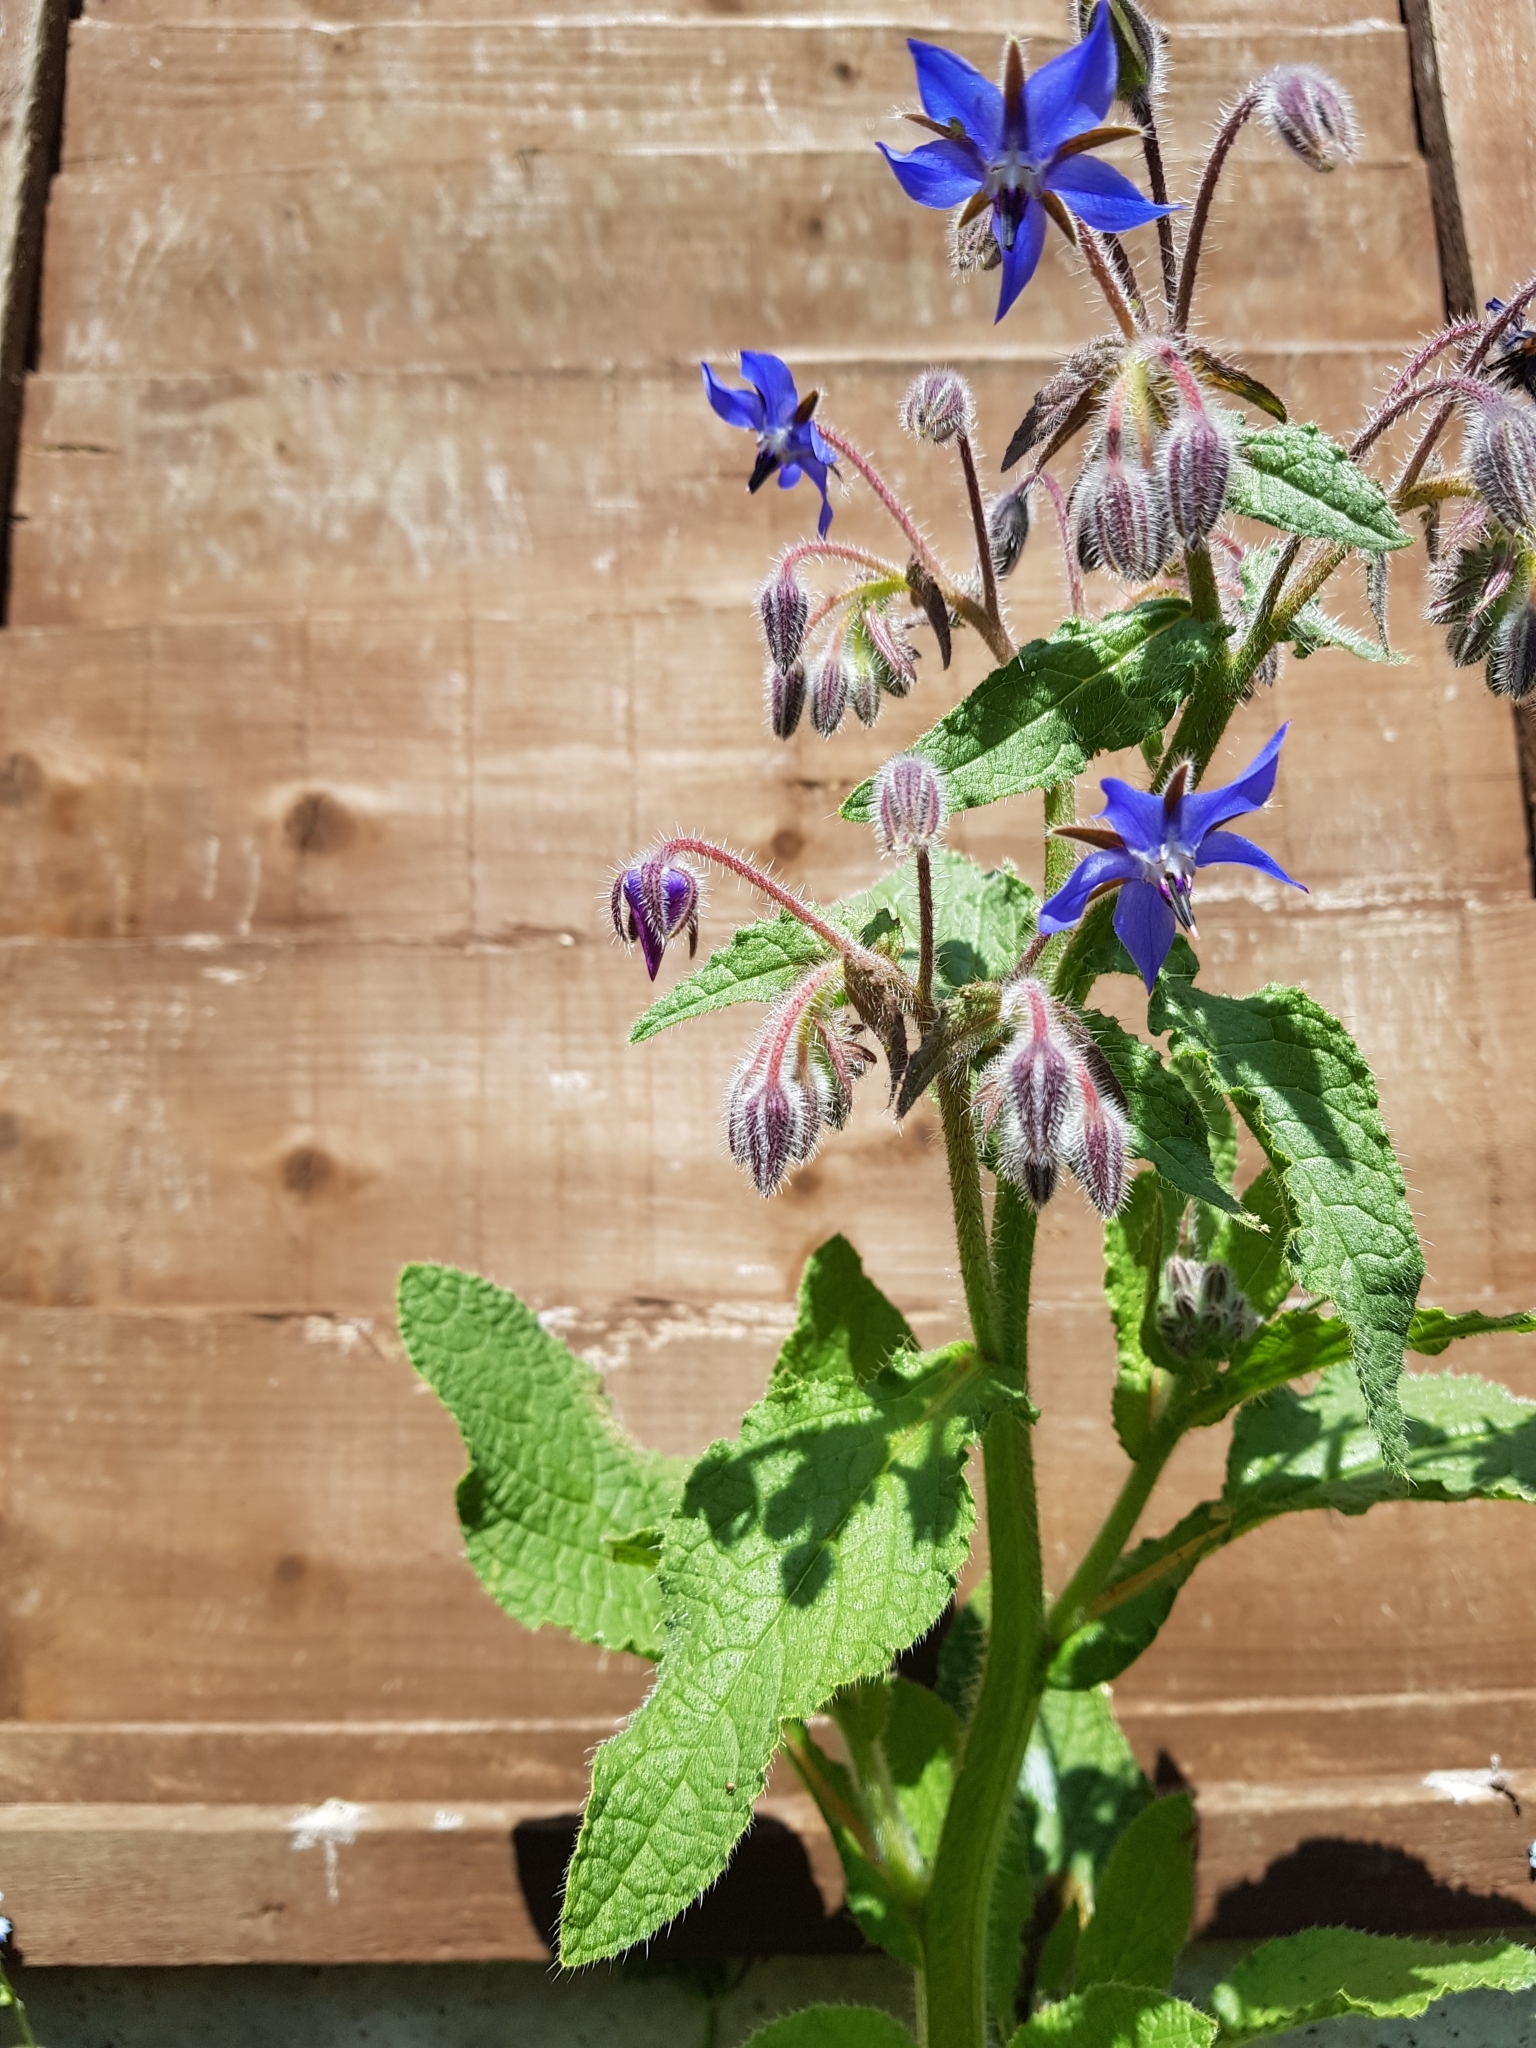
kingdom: Plantae
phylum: Tracheophyta
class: Magnoliopsida
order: Boraginales
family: Boraginaceae
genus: Borago
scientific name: Borago officinalis
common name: Borage
